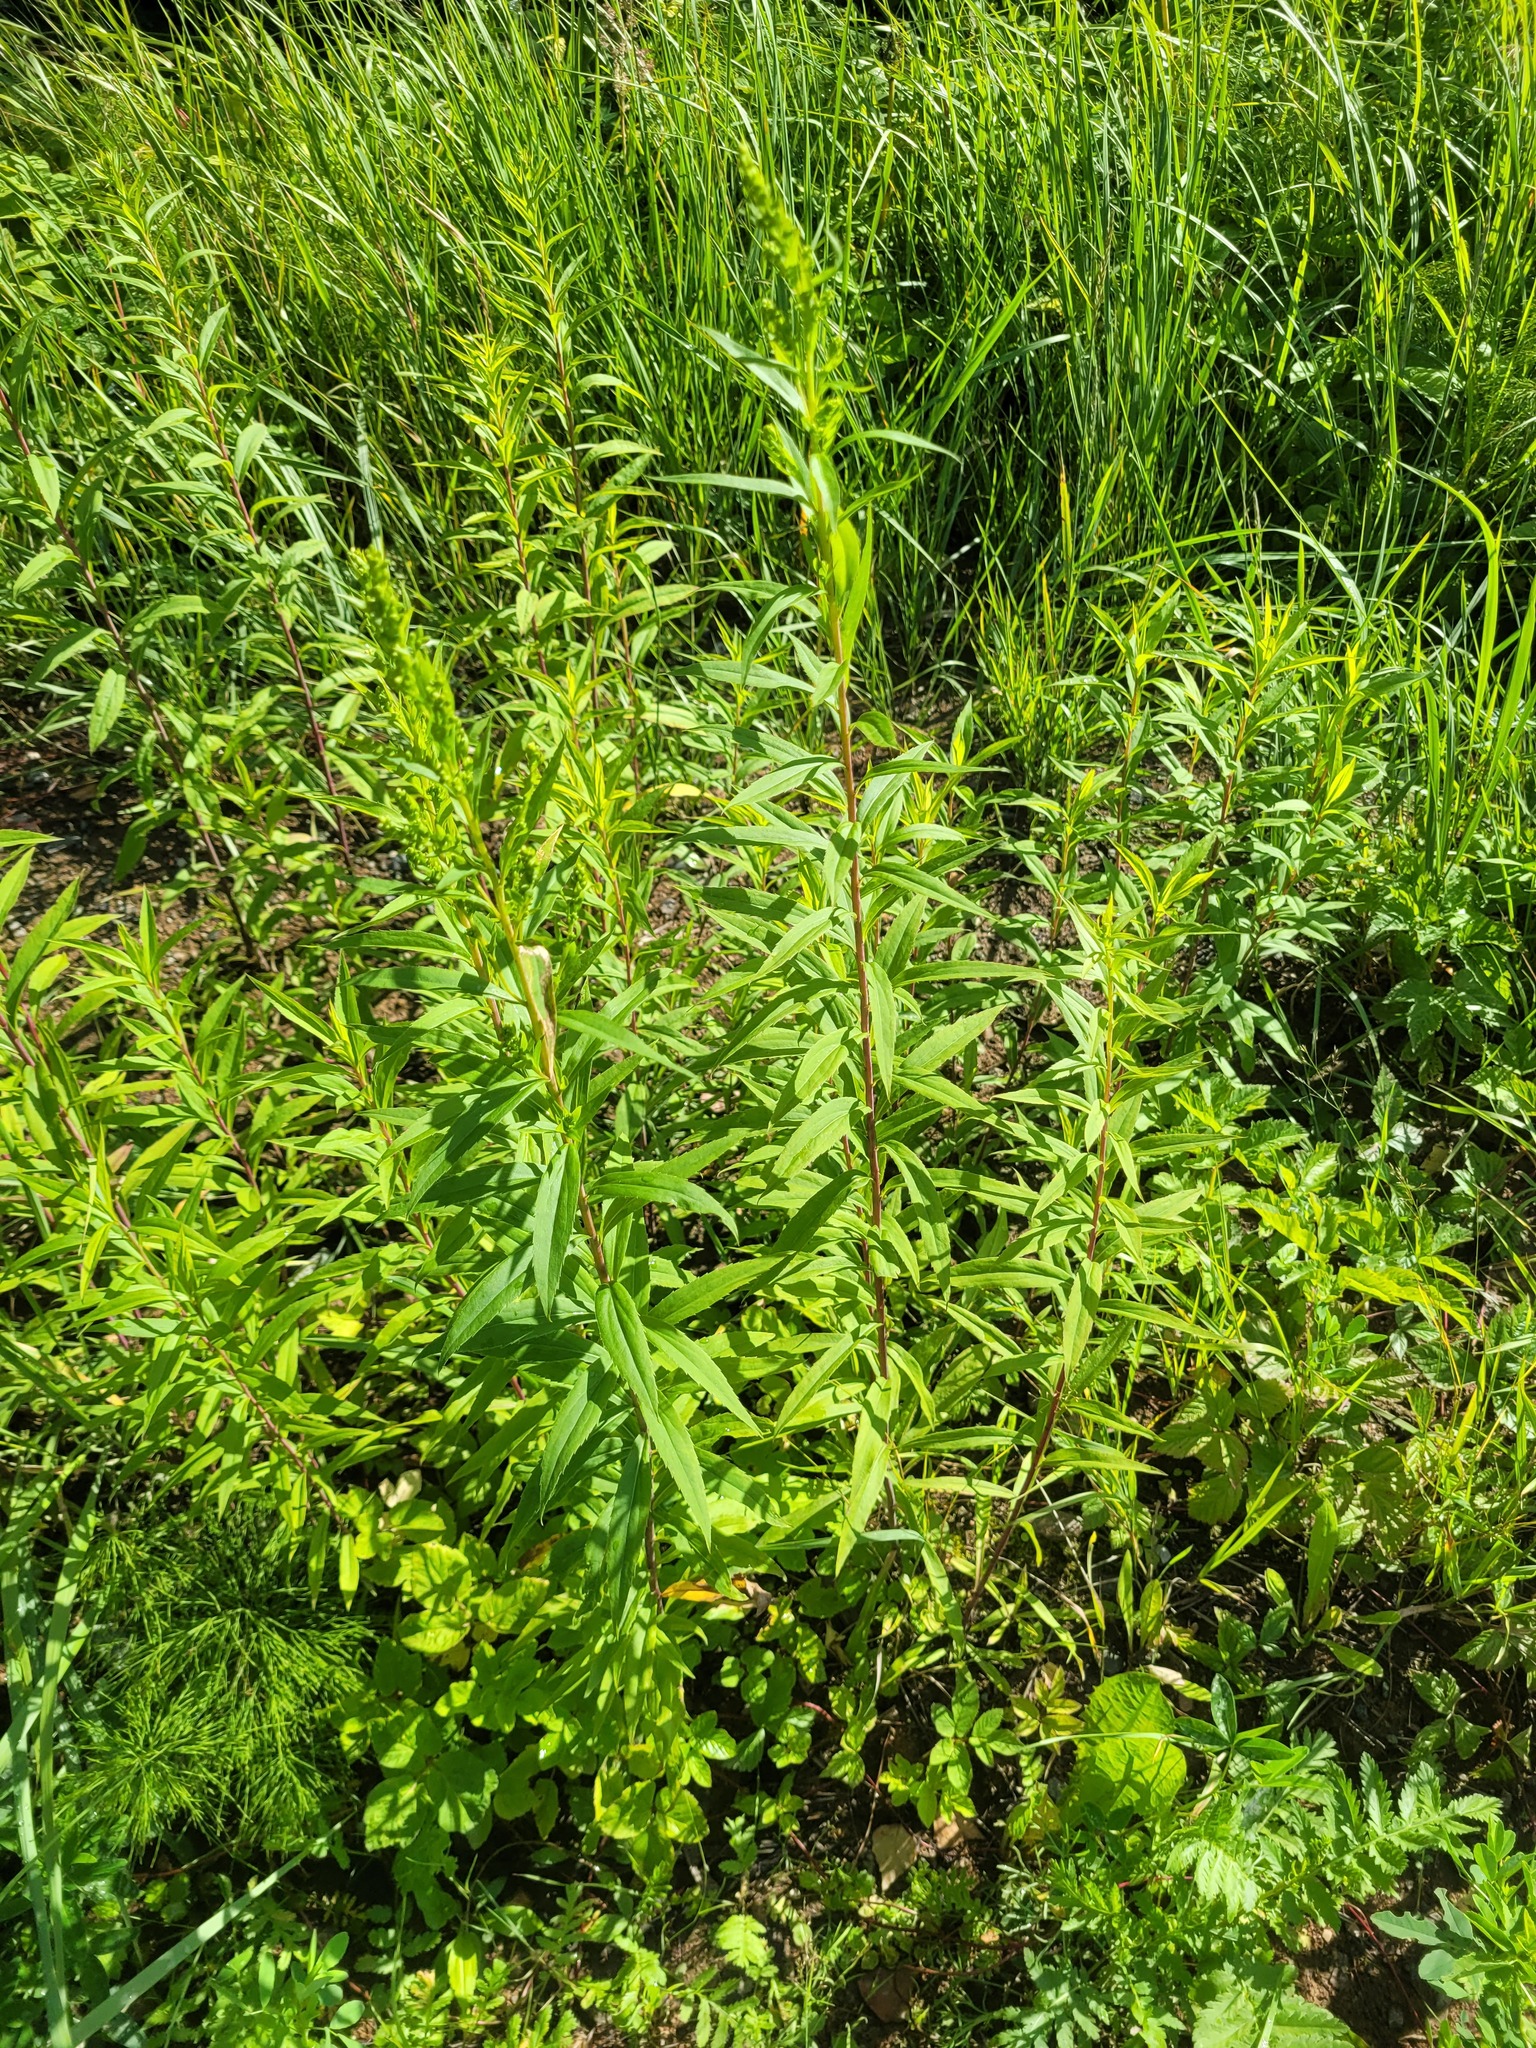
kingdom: Plantae
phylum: Tracheophyta
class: Magnoliopsida
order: Asterales
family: Asteraceae
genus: Solidago
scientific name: Solidago gigantea
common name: Giant goldenrod
